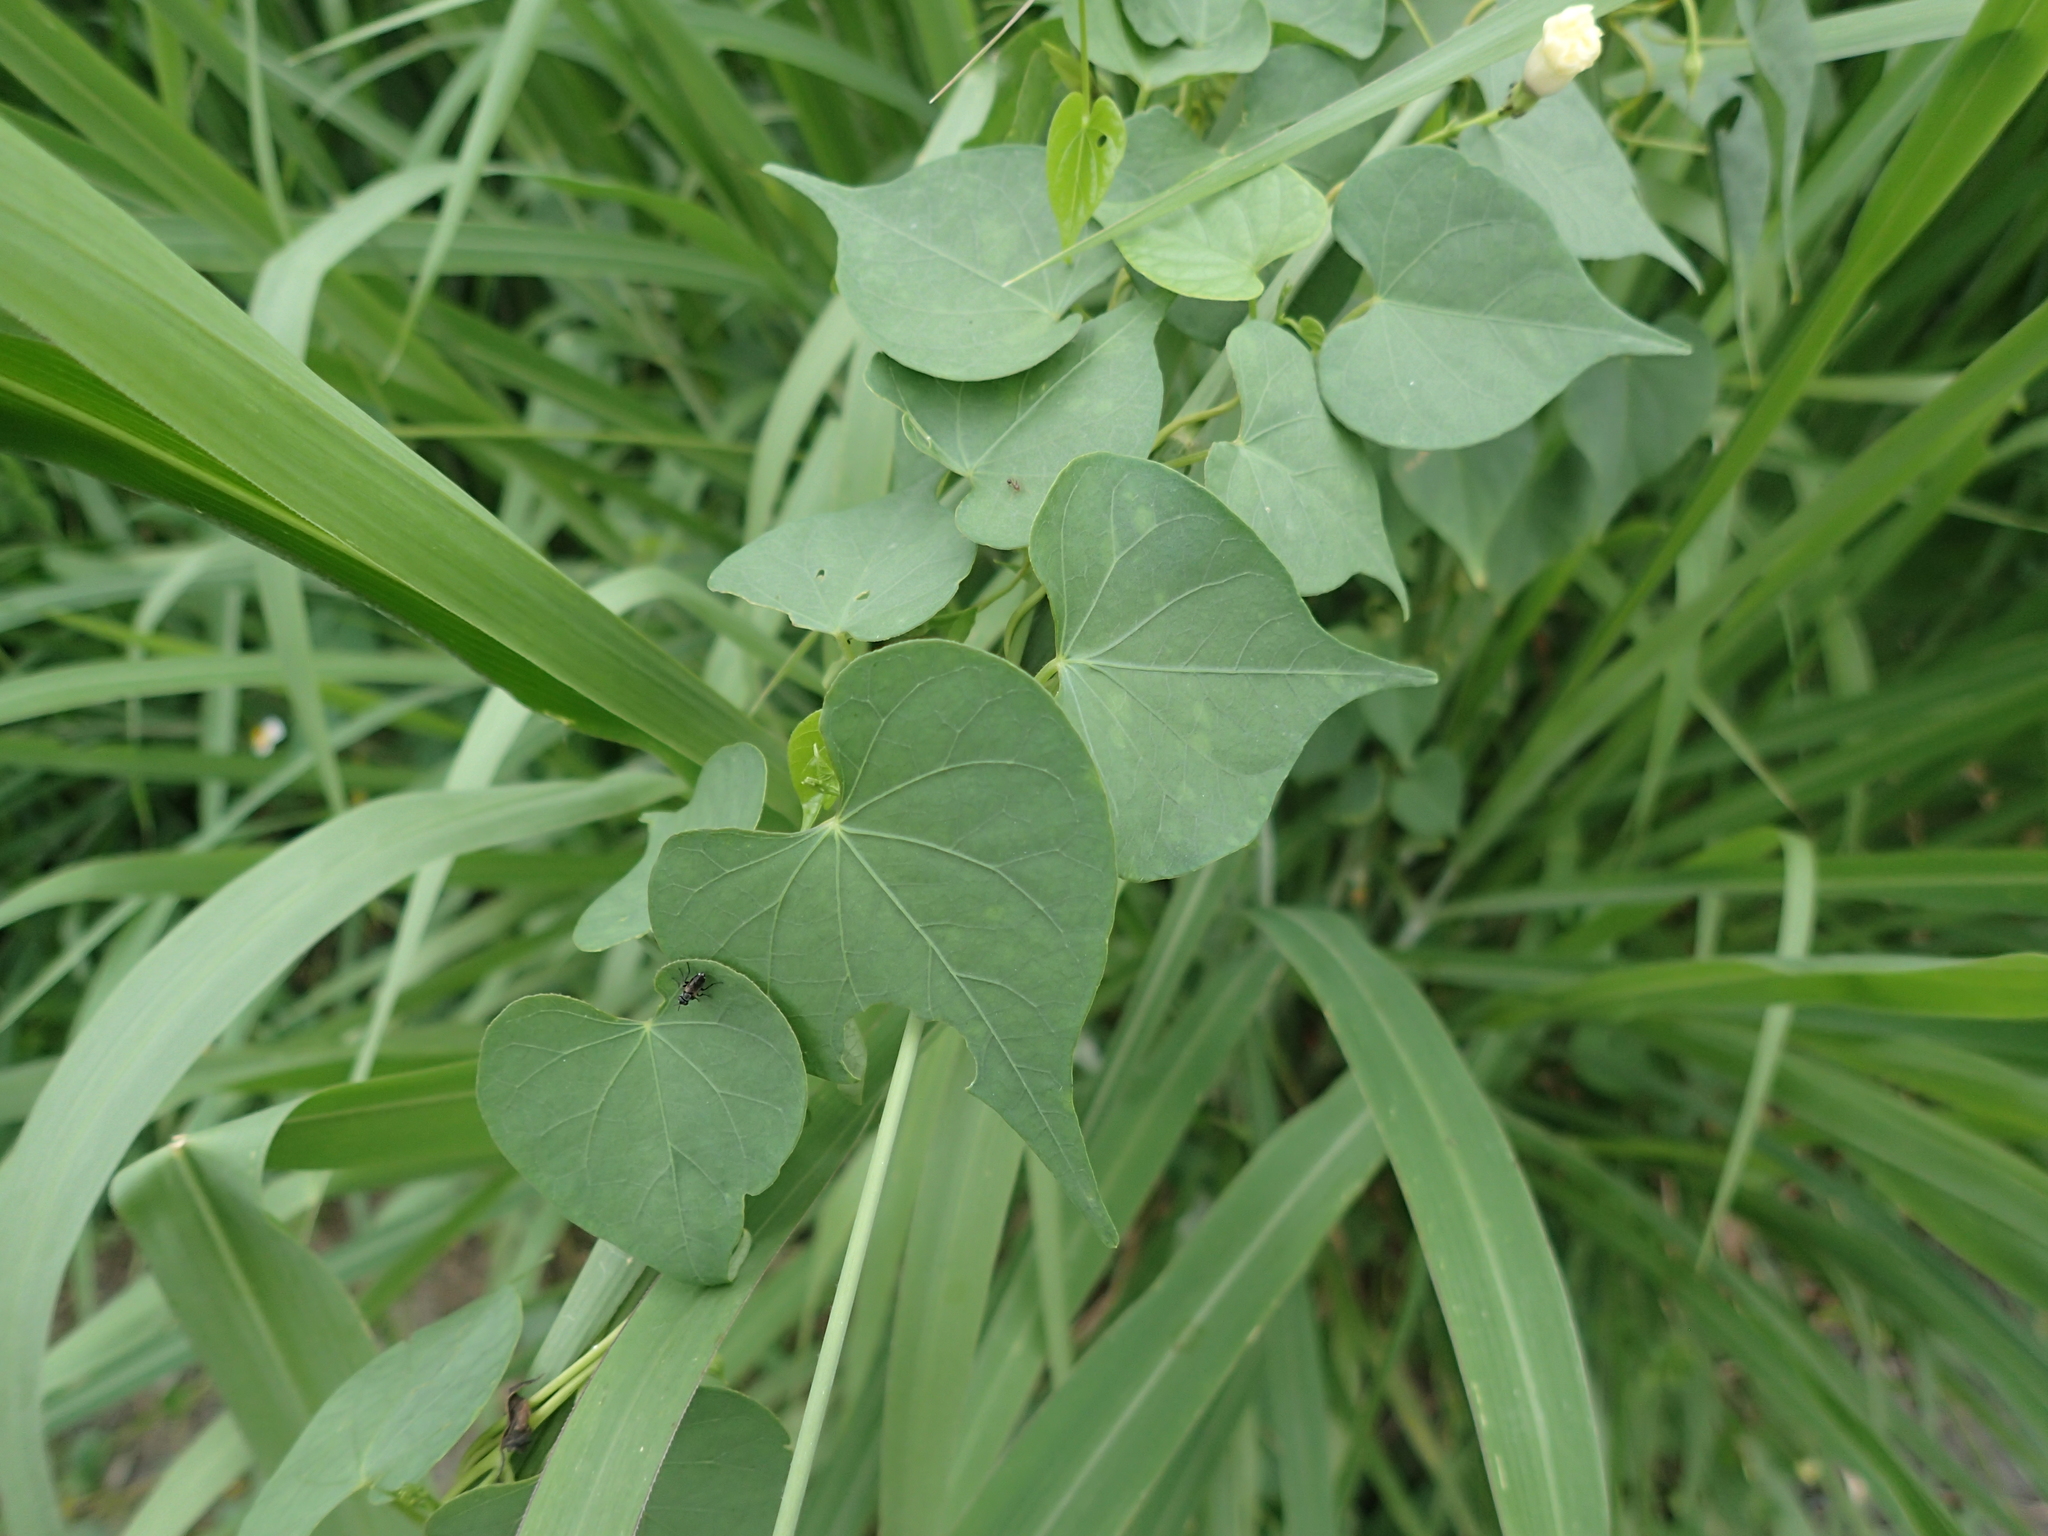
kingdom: Plantae
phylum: Tracheophyta
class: Magnoliopsida
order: Solanales
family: Convolvulaceae
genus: Ipomoea
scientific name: Ipomoea obscura
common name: Obscure morning-glory
